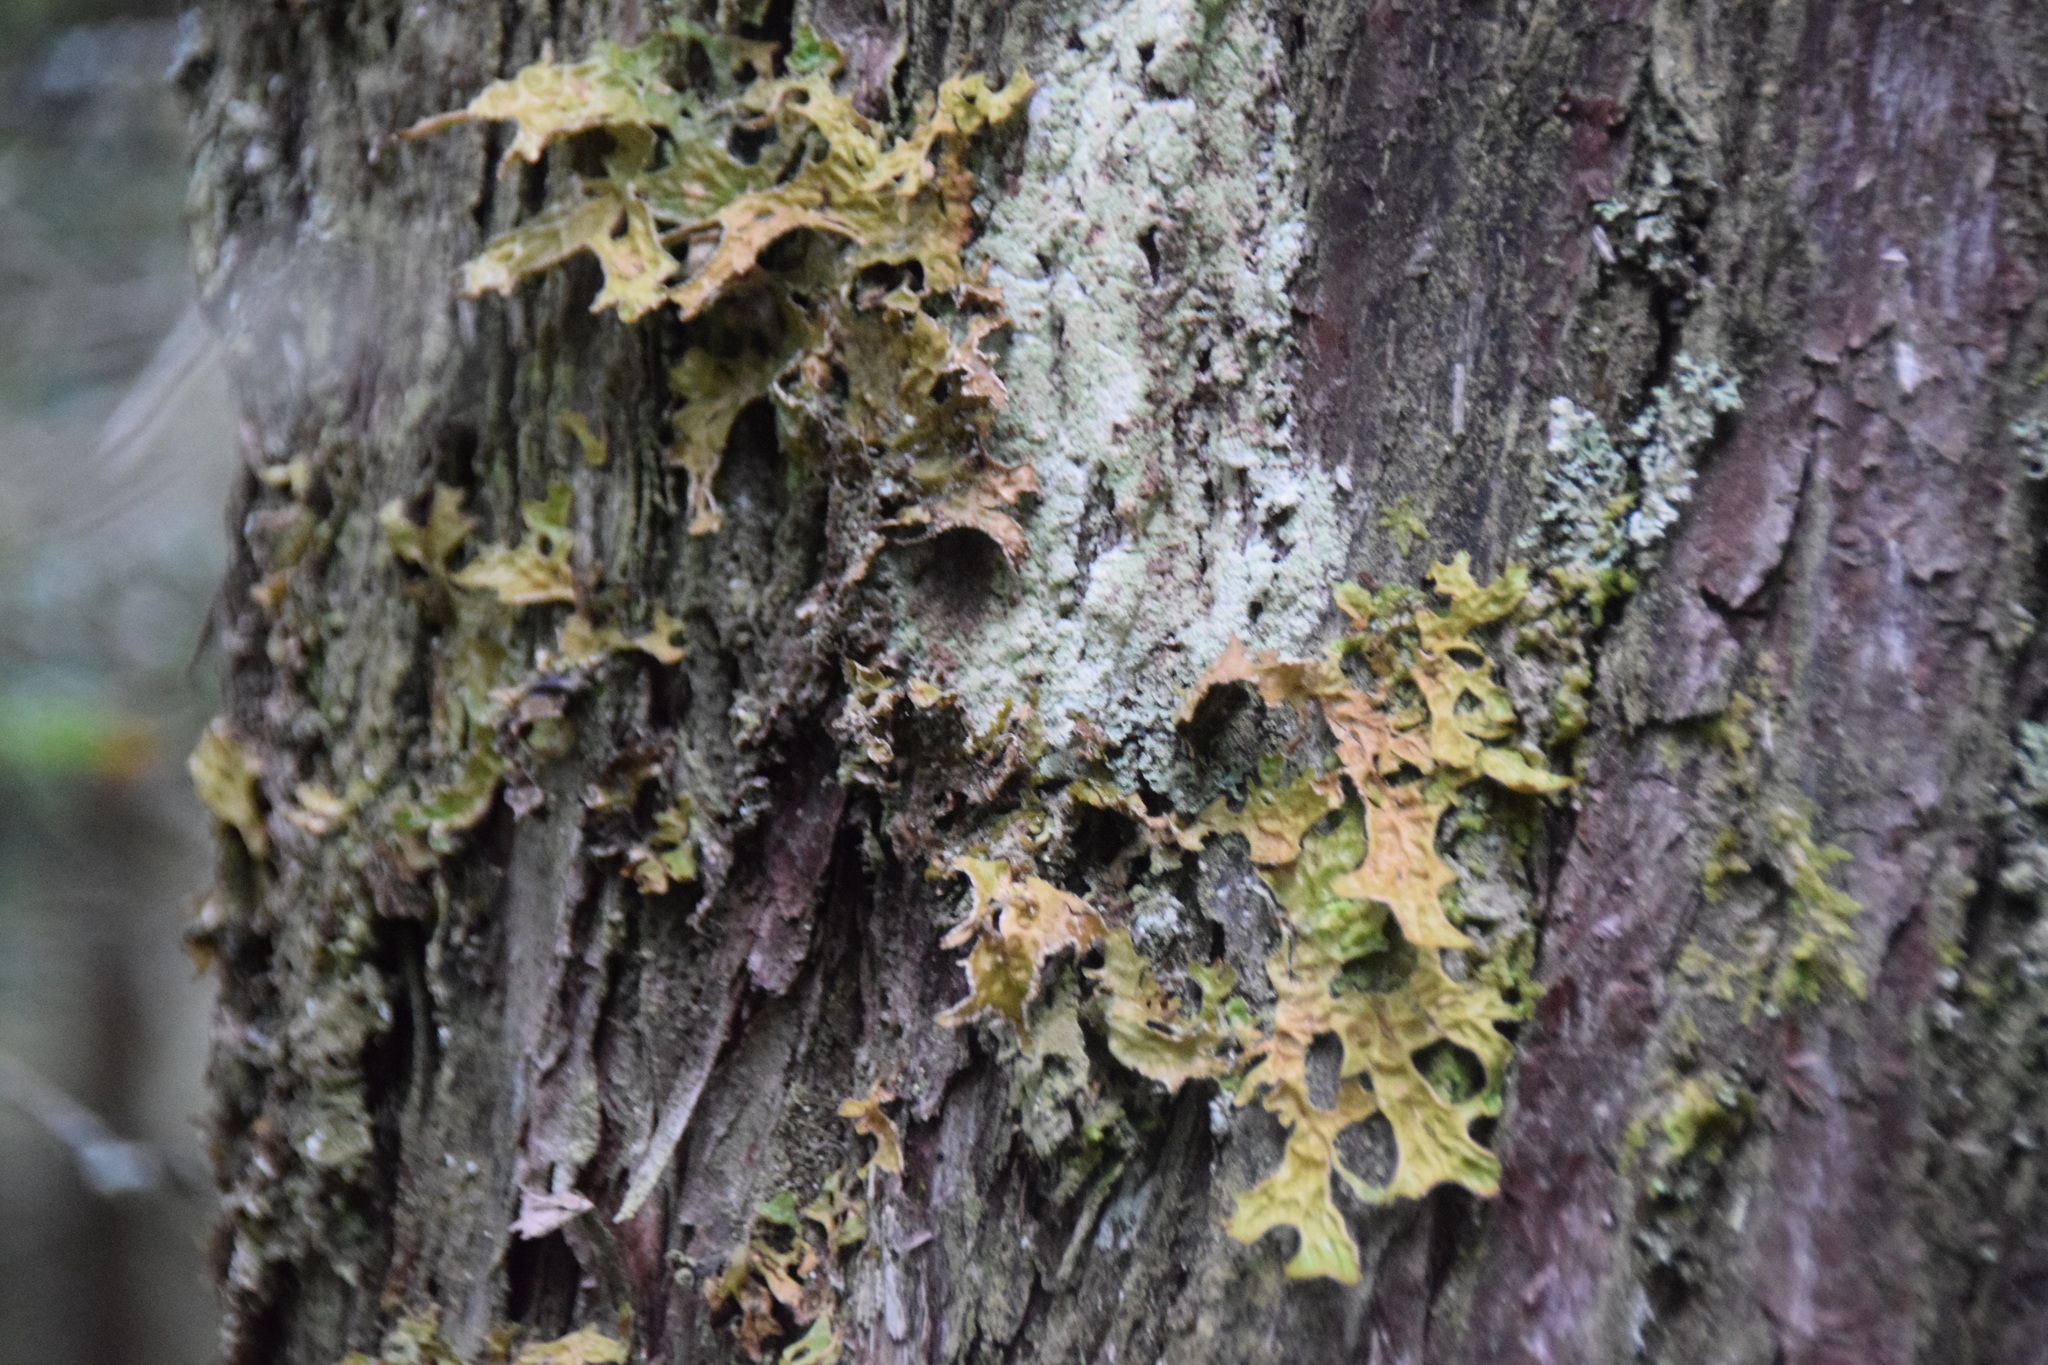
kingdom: Fungi
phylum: Ascomycota
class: Lecanoromycetes
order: Peltigerales
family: Lobariaceae
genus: Lobaria
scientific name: Lobaria pulmonaria
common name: Lungwort
